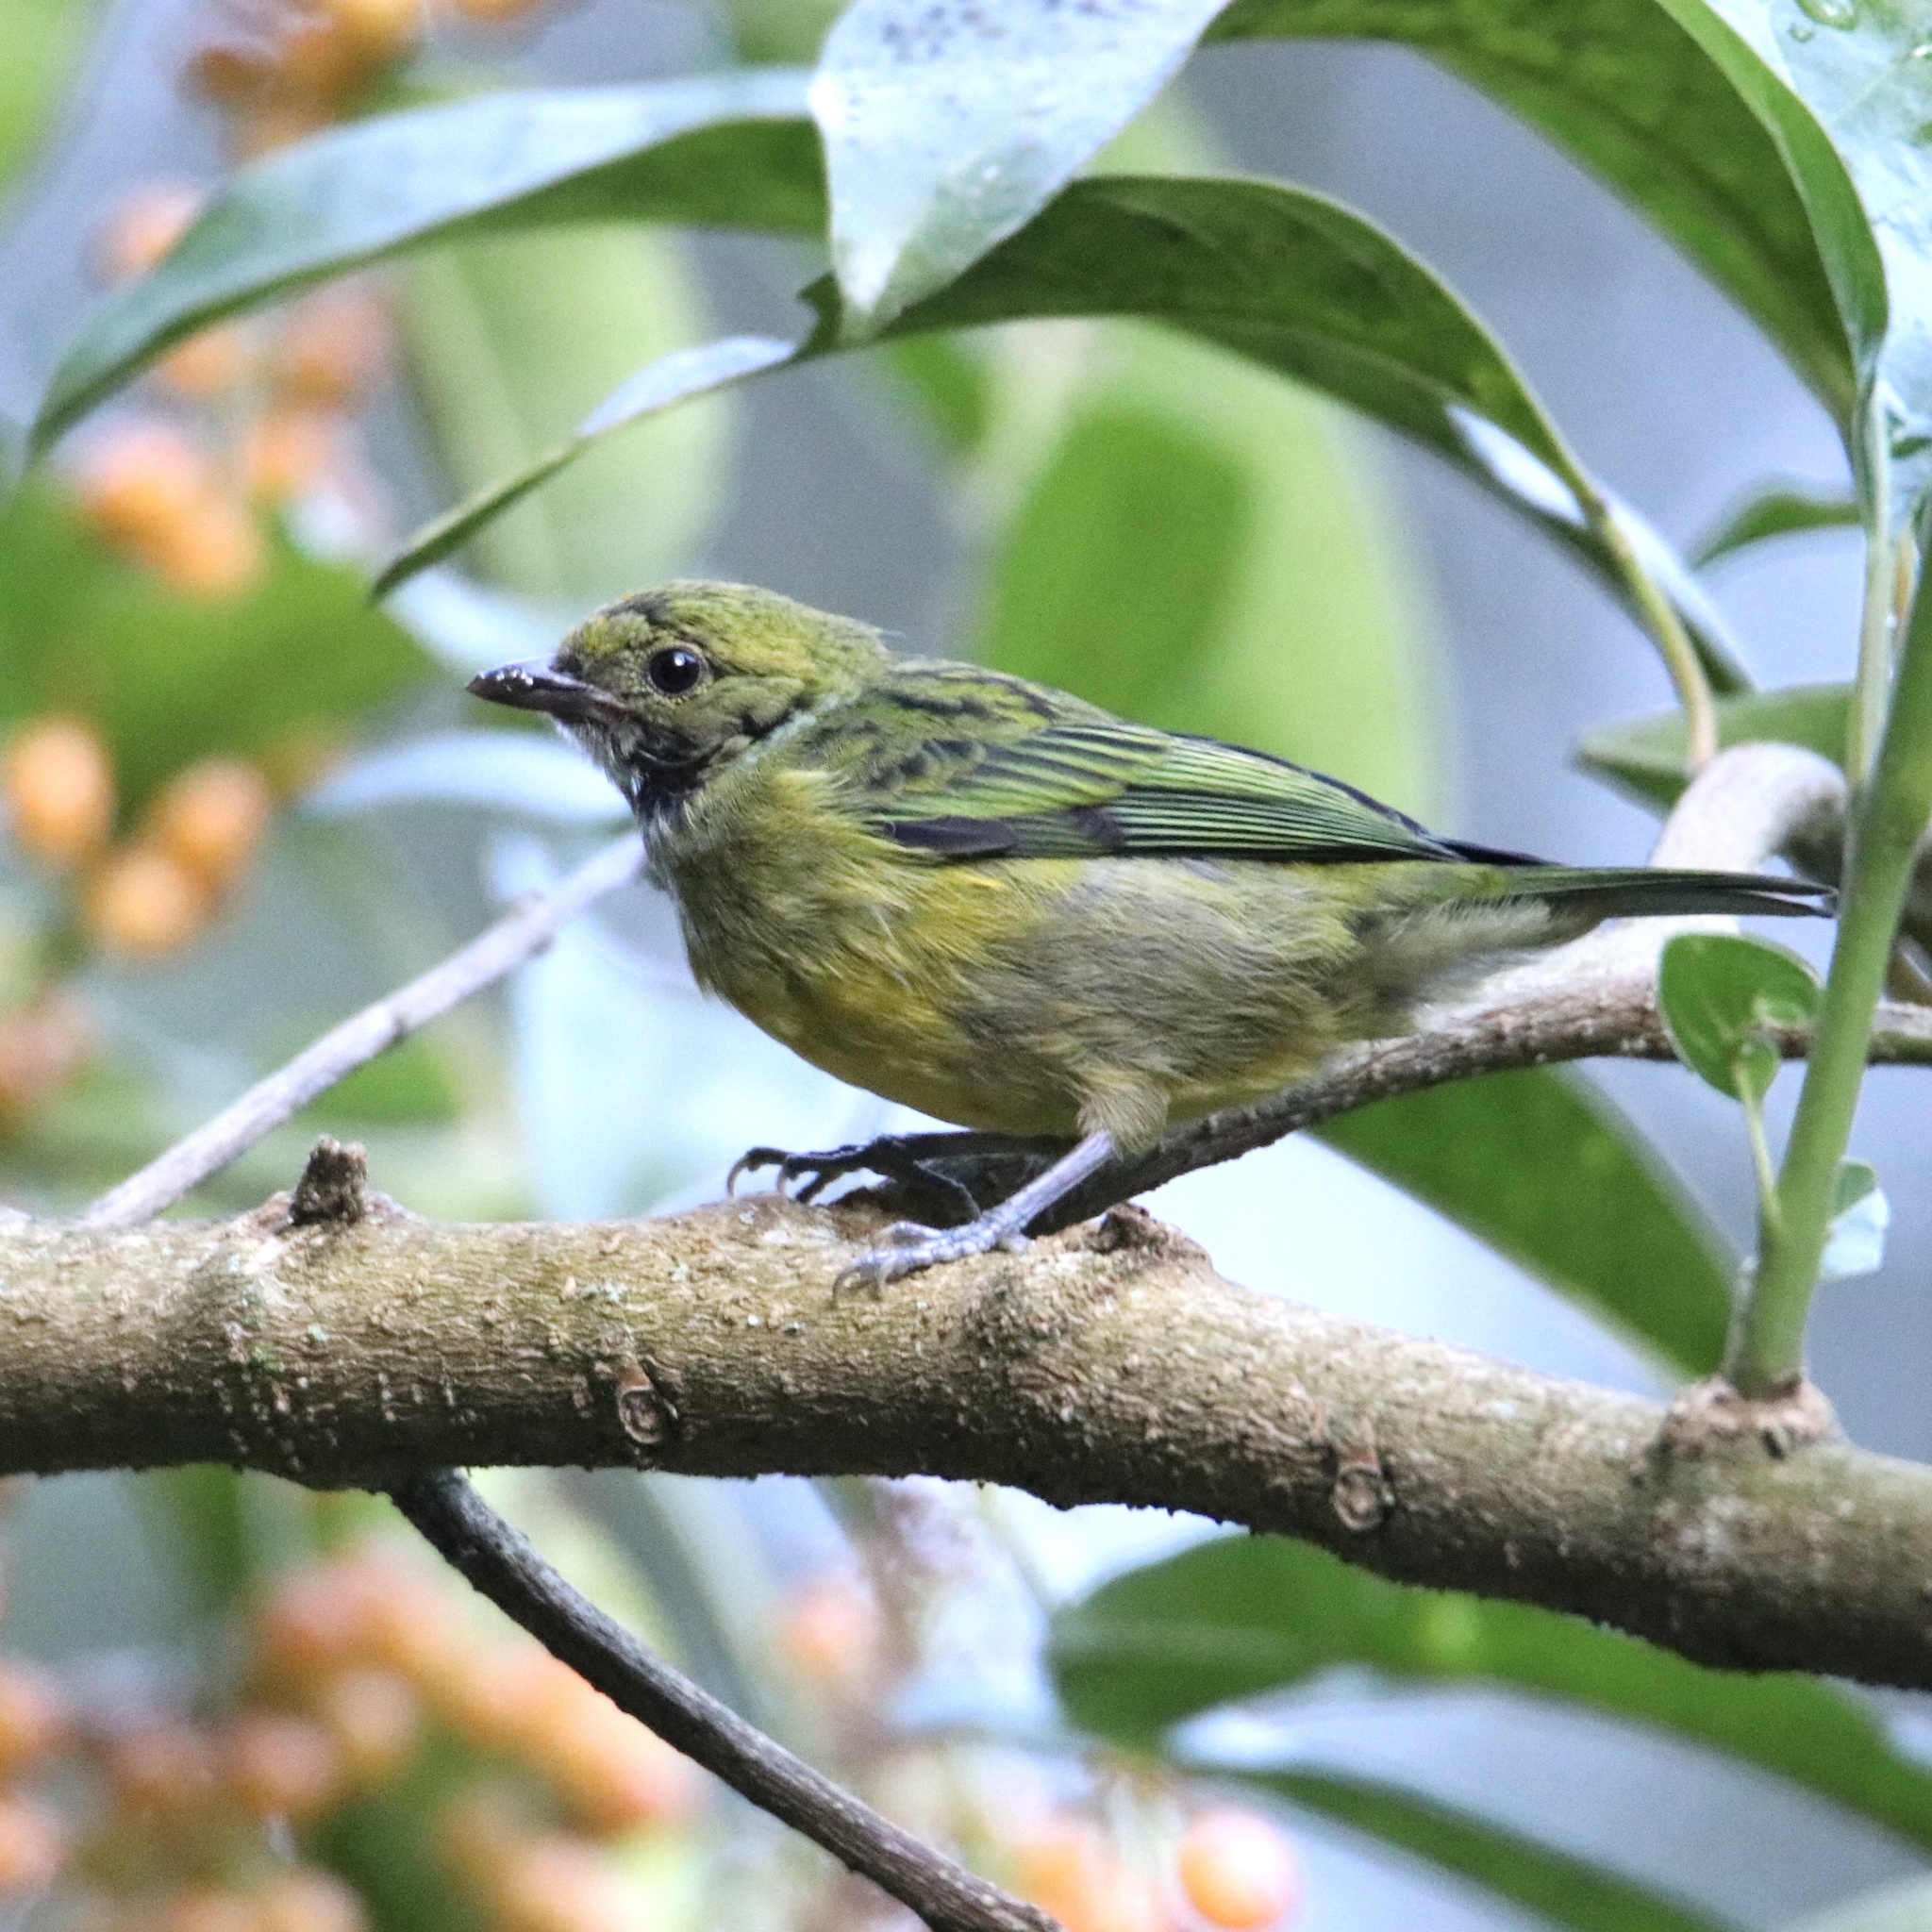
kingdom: Animalia
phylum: Chordata
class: Aves
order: Passeriformes
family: Thraupidae
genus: Tangara
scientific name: Tangara icterocephala
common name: Silver-throated tanager
